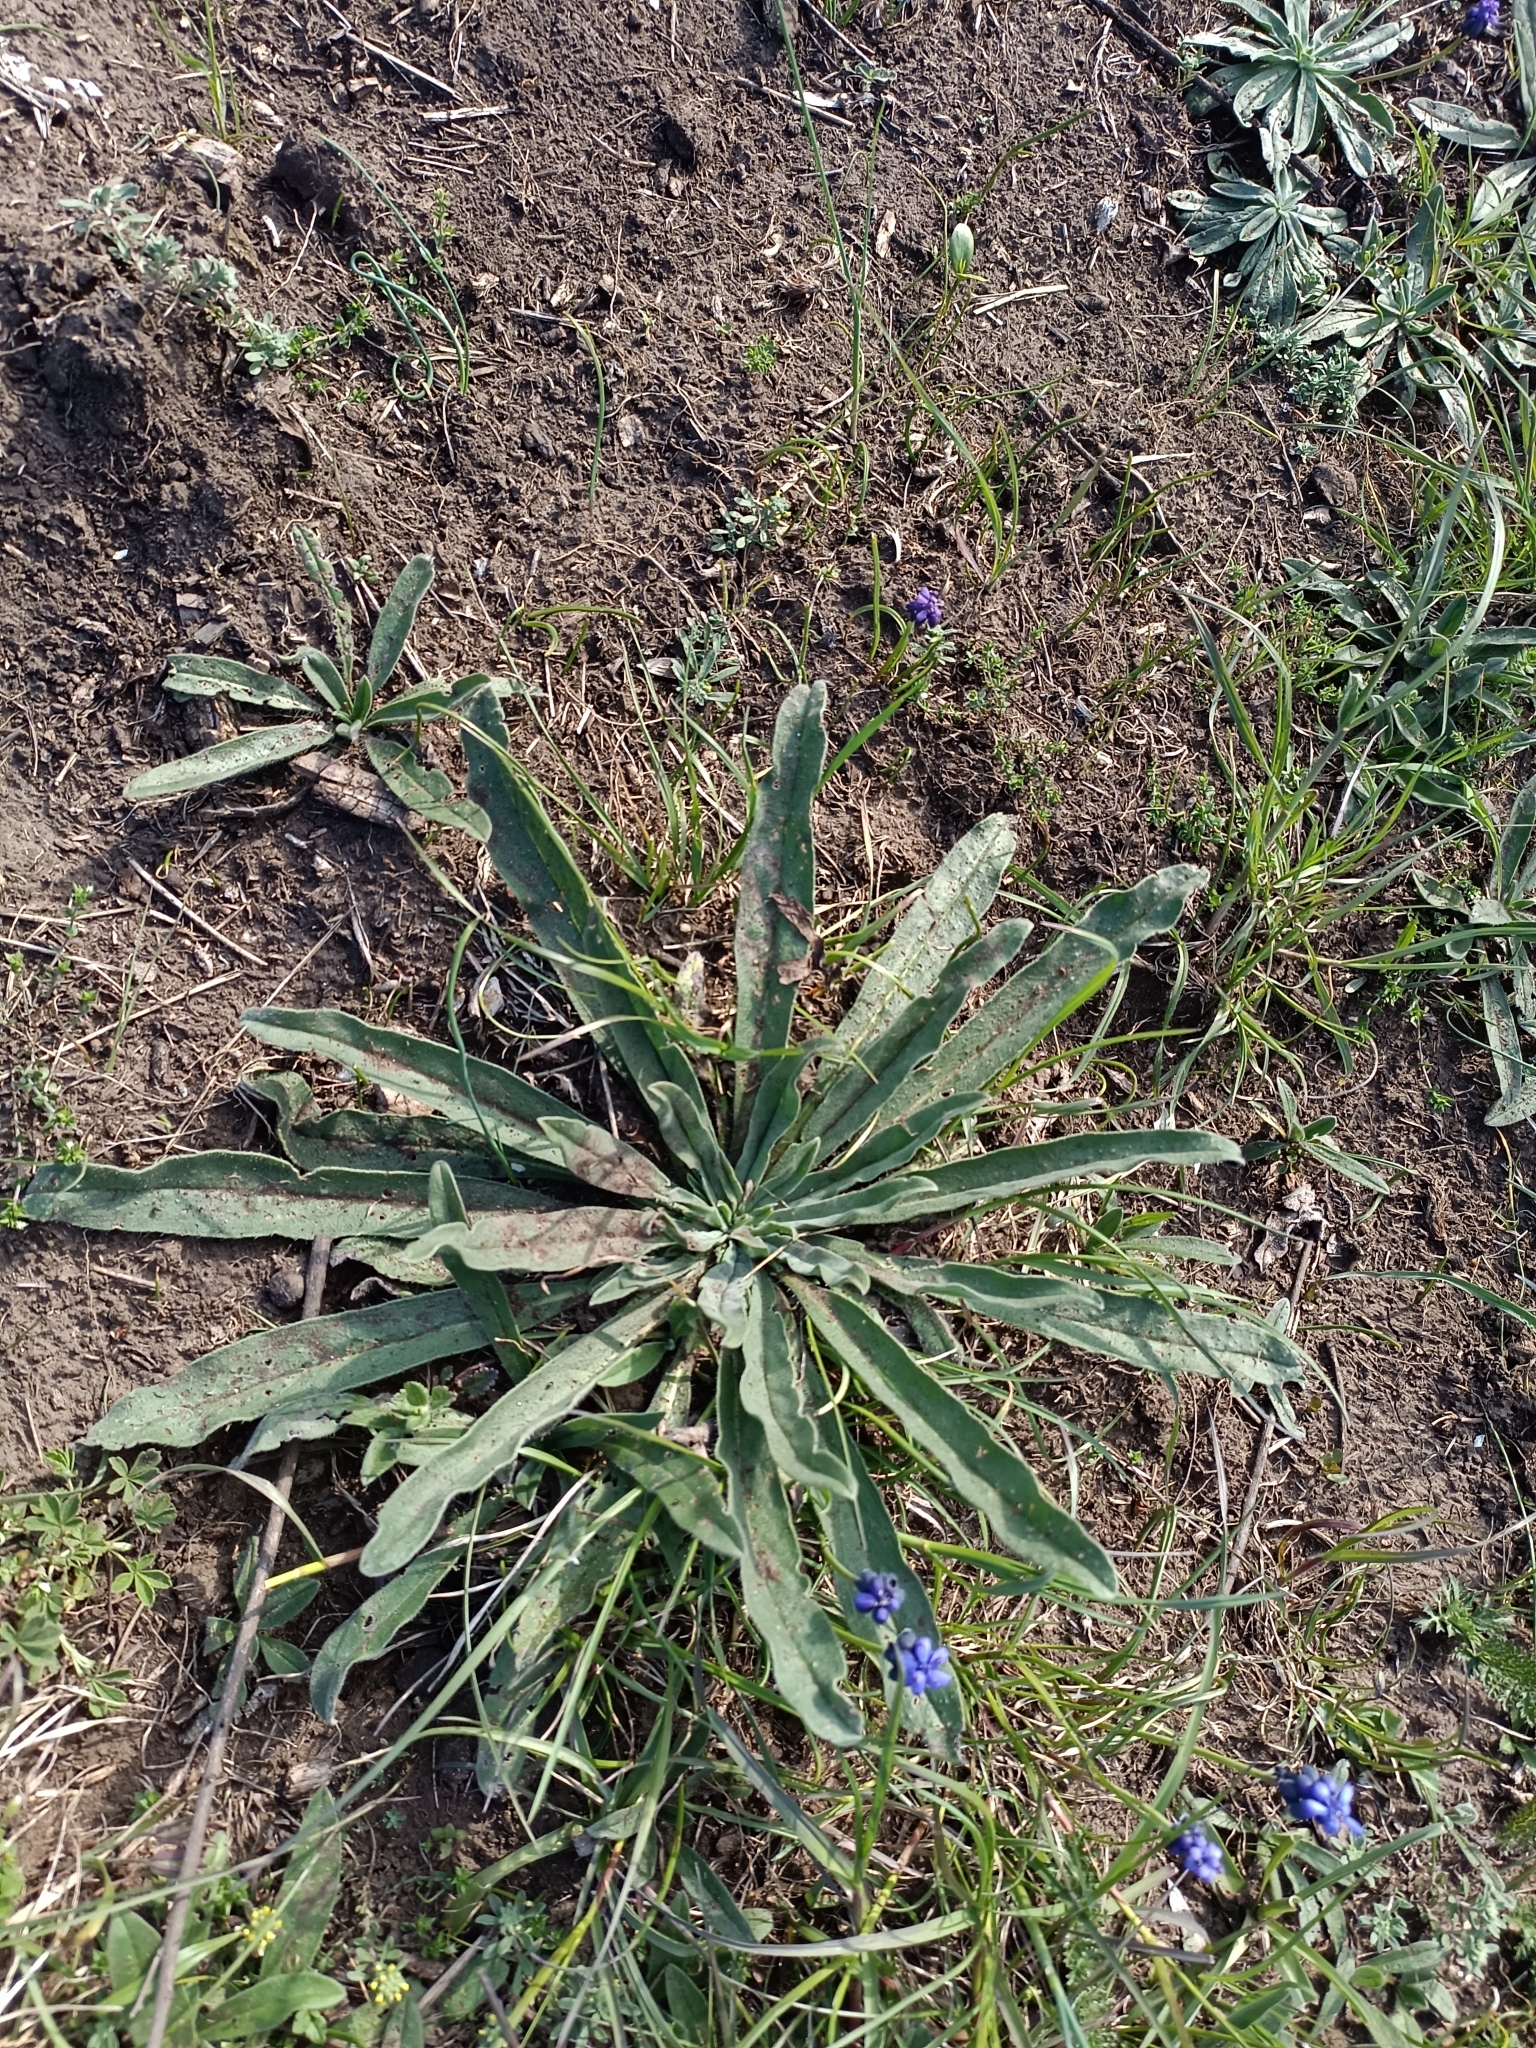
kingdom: Plantae
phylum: Tracheophyta
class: Magnoliopsida
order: Boraginales
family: Boraginaceae
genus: Echium
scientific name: Echium vulgare
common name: Common viper's bugloss
